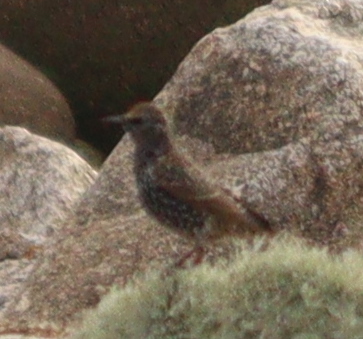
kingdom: Animalia
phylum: Chordata
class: Aves
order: Passeriformes
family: Sturnidae
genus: Sturnus
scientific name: Sturnus vulgaris
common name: Common starling
